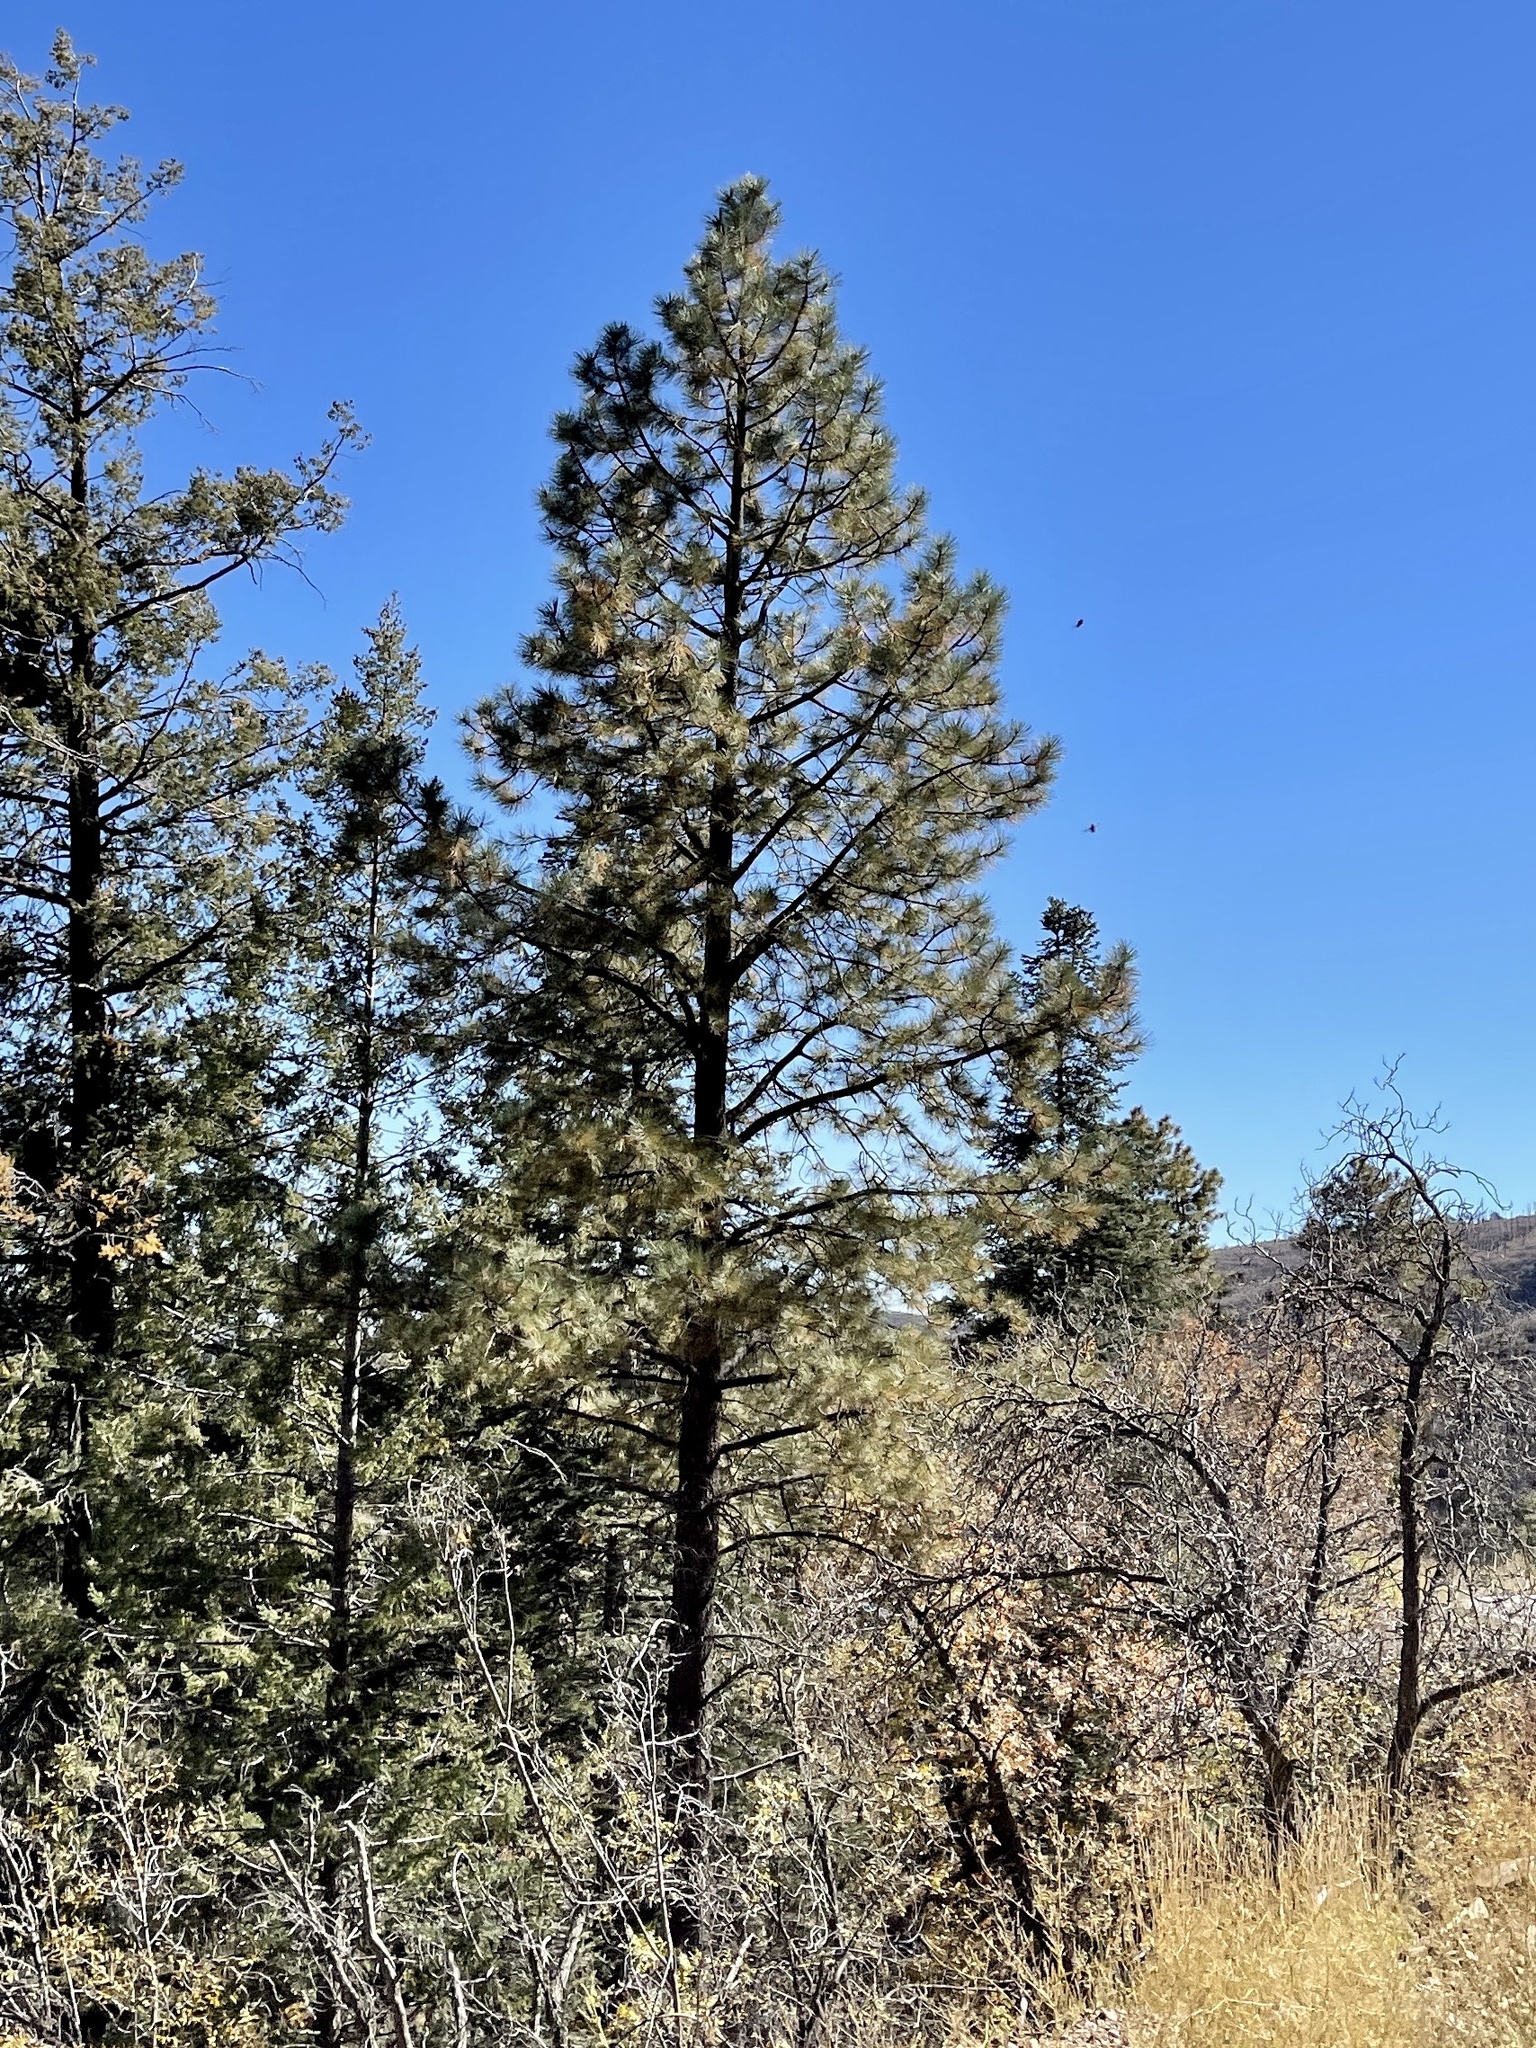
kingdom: Plantae
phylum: Tracheophyta
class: Pinopsida
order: Pinales
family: Pinaceae
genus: Pinus
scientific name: Pinus ponderosa
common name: Western yellow-pine
